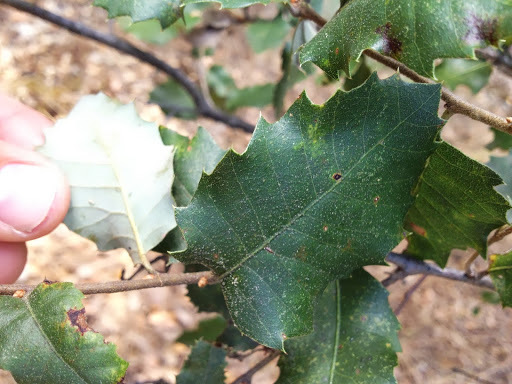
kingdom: Plantae
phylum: Tracheophyta
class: Magnoliopsida
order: Fagales
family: Fagaceae
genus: Quercus
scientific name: Quercus chrysolepis
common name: Canyon live oak
